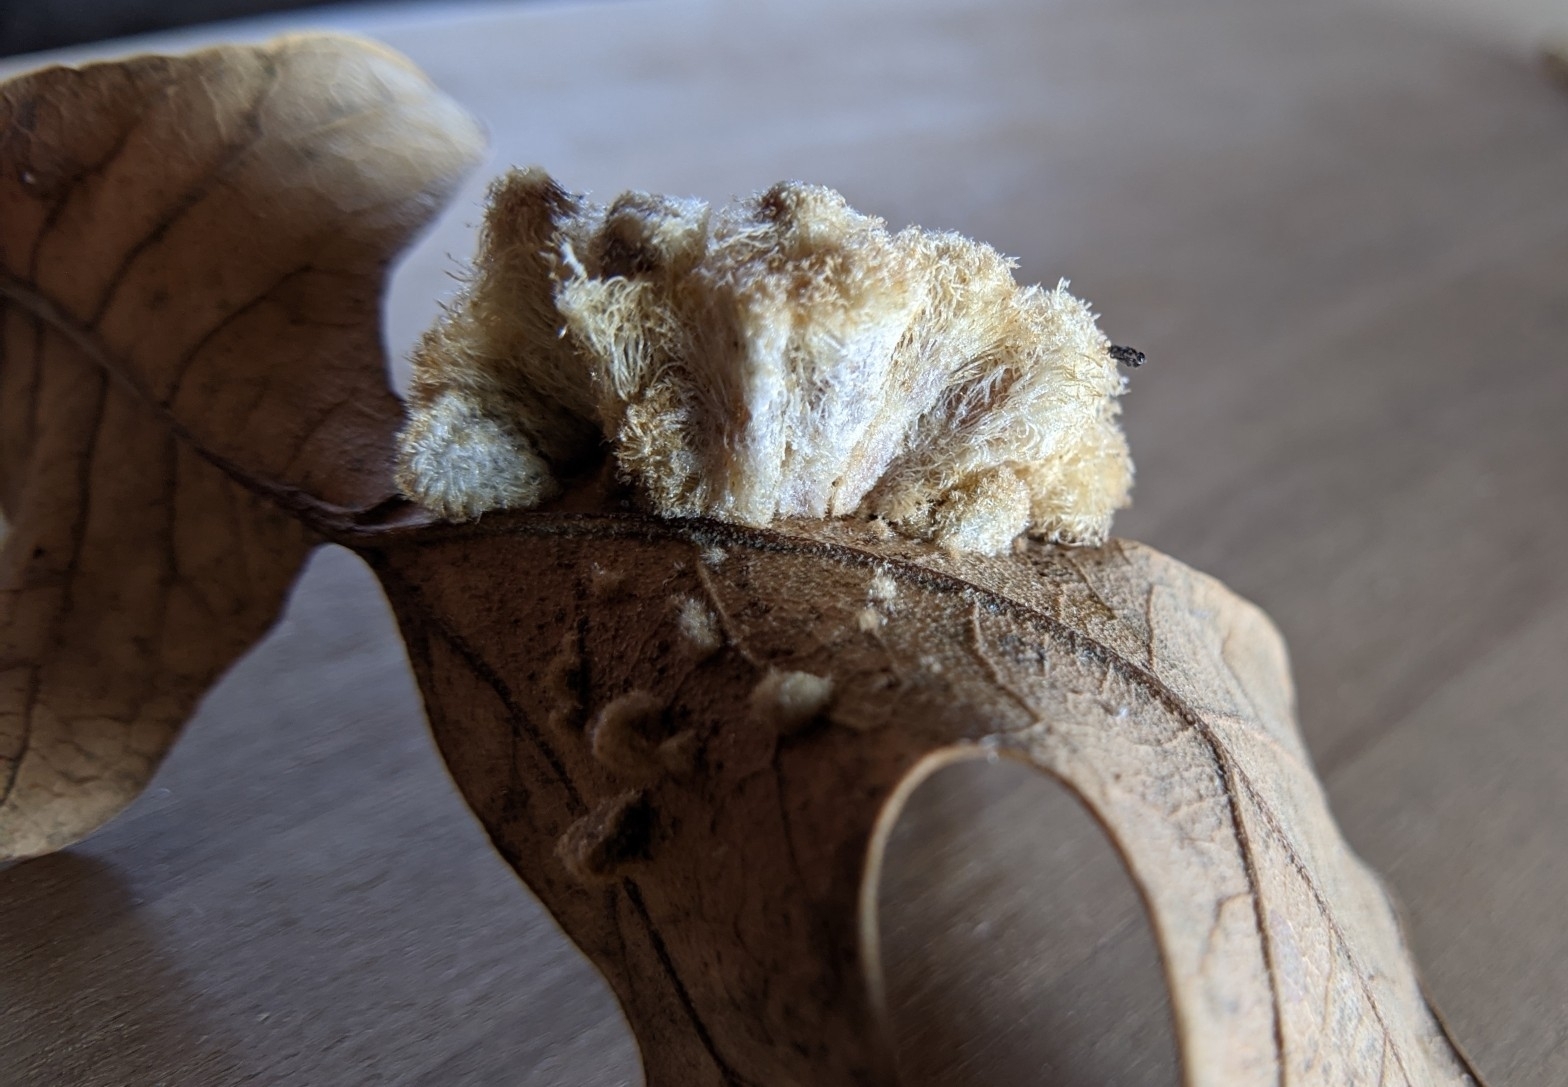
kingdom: Animalia
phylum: Arthropoda
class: Insecta
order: Hymenoptera
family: Cynipidae
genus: Andricus
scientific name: Andricus
